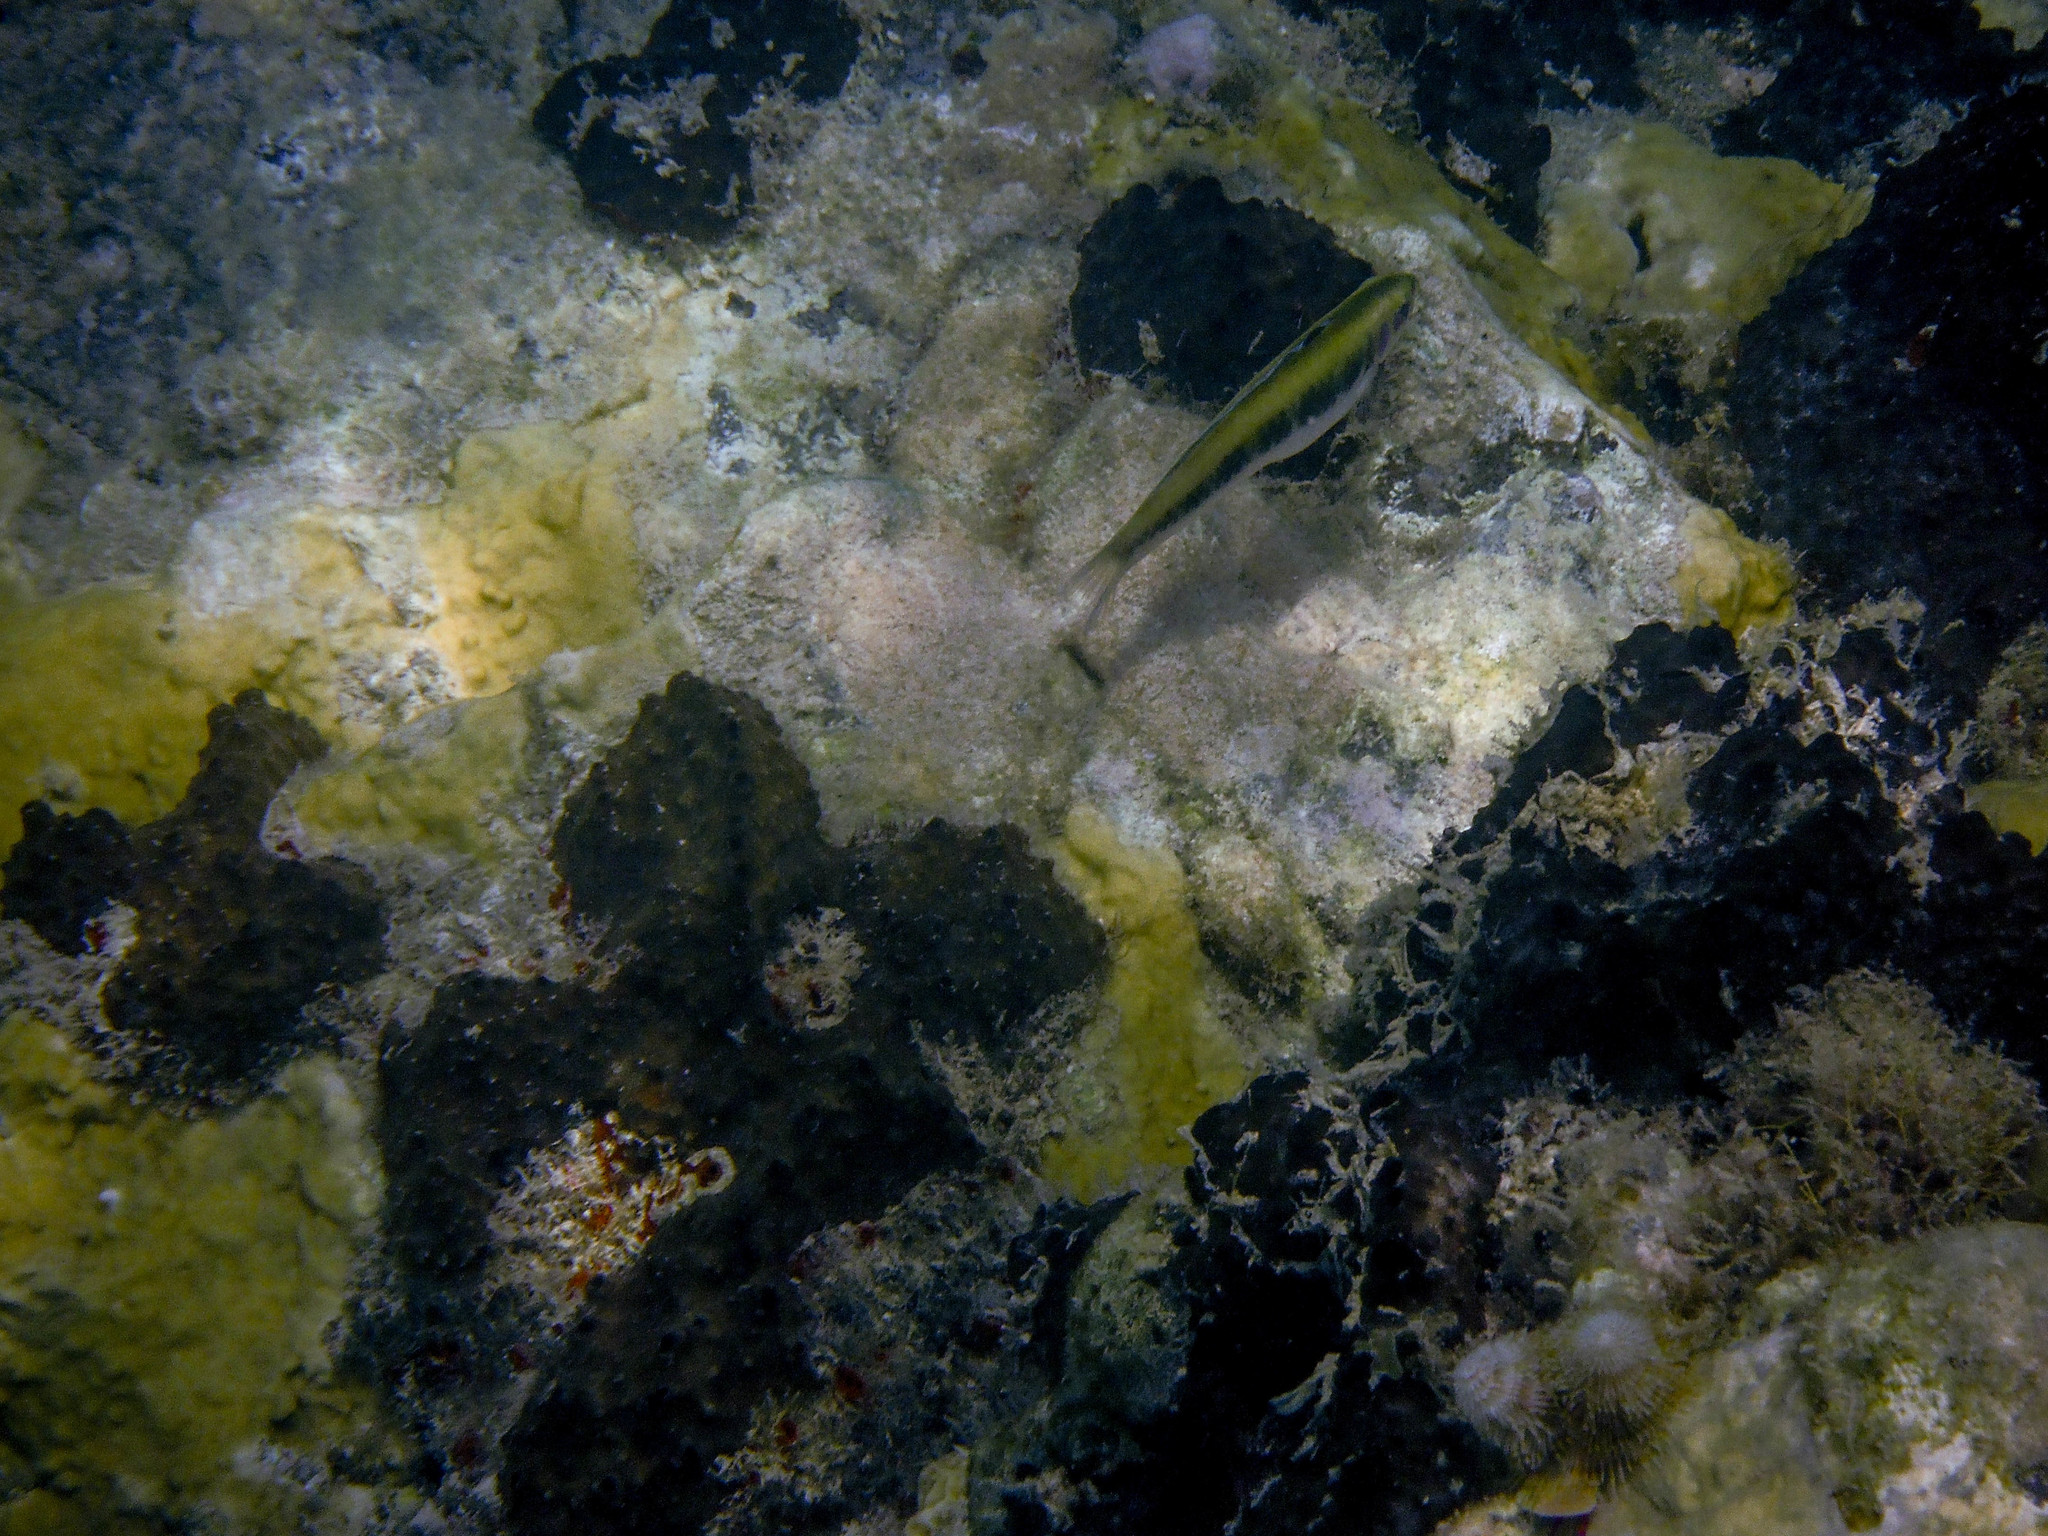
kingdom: Animalia
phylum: Chordata
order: Perciformes
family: Labridae
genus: Thalassoma
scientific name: Thalassoma bifasciatum
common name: Bluehead wrasse
